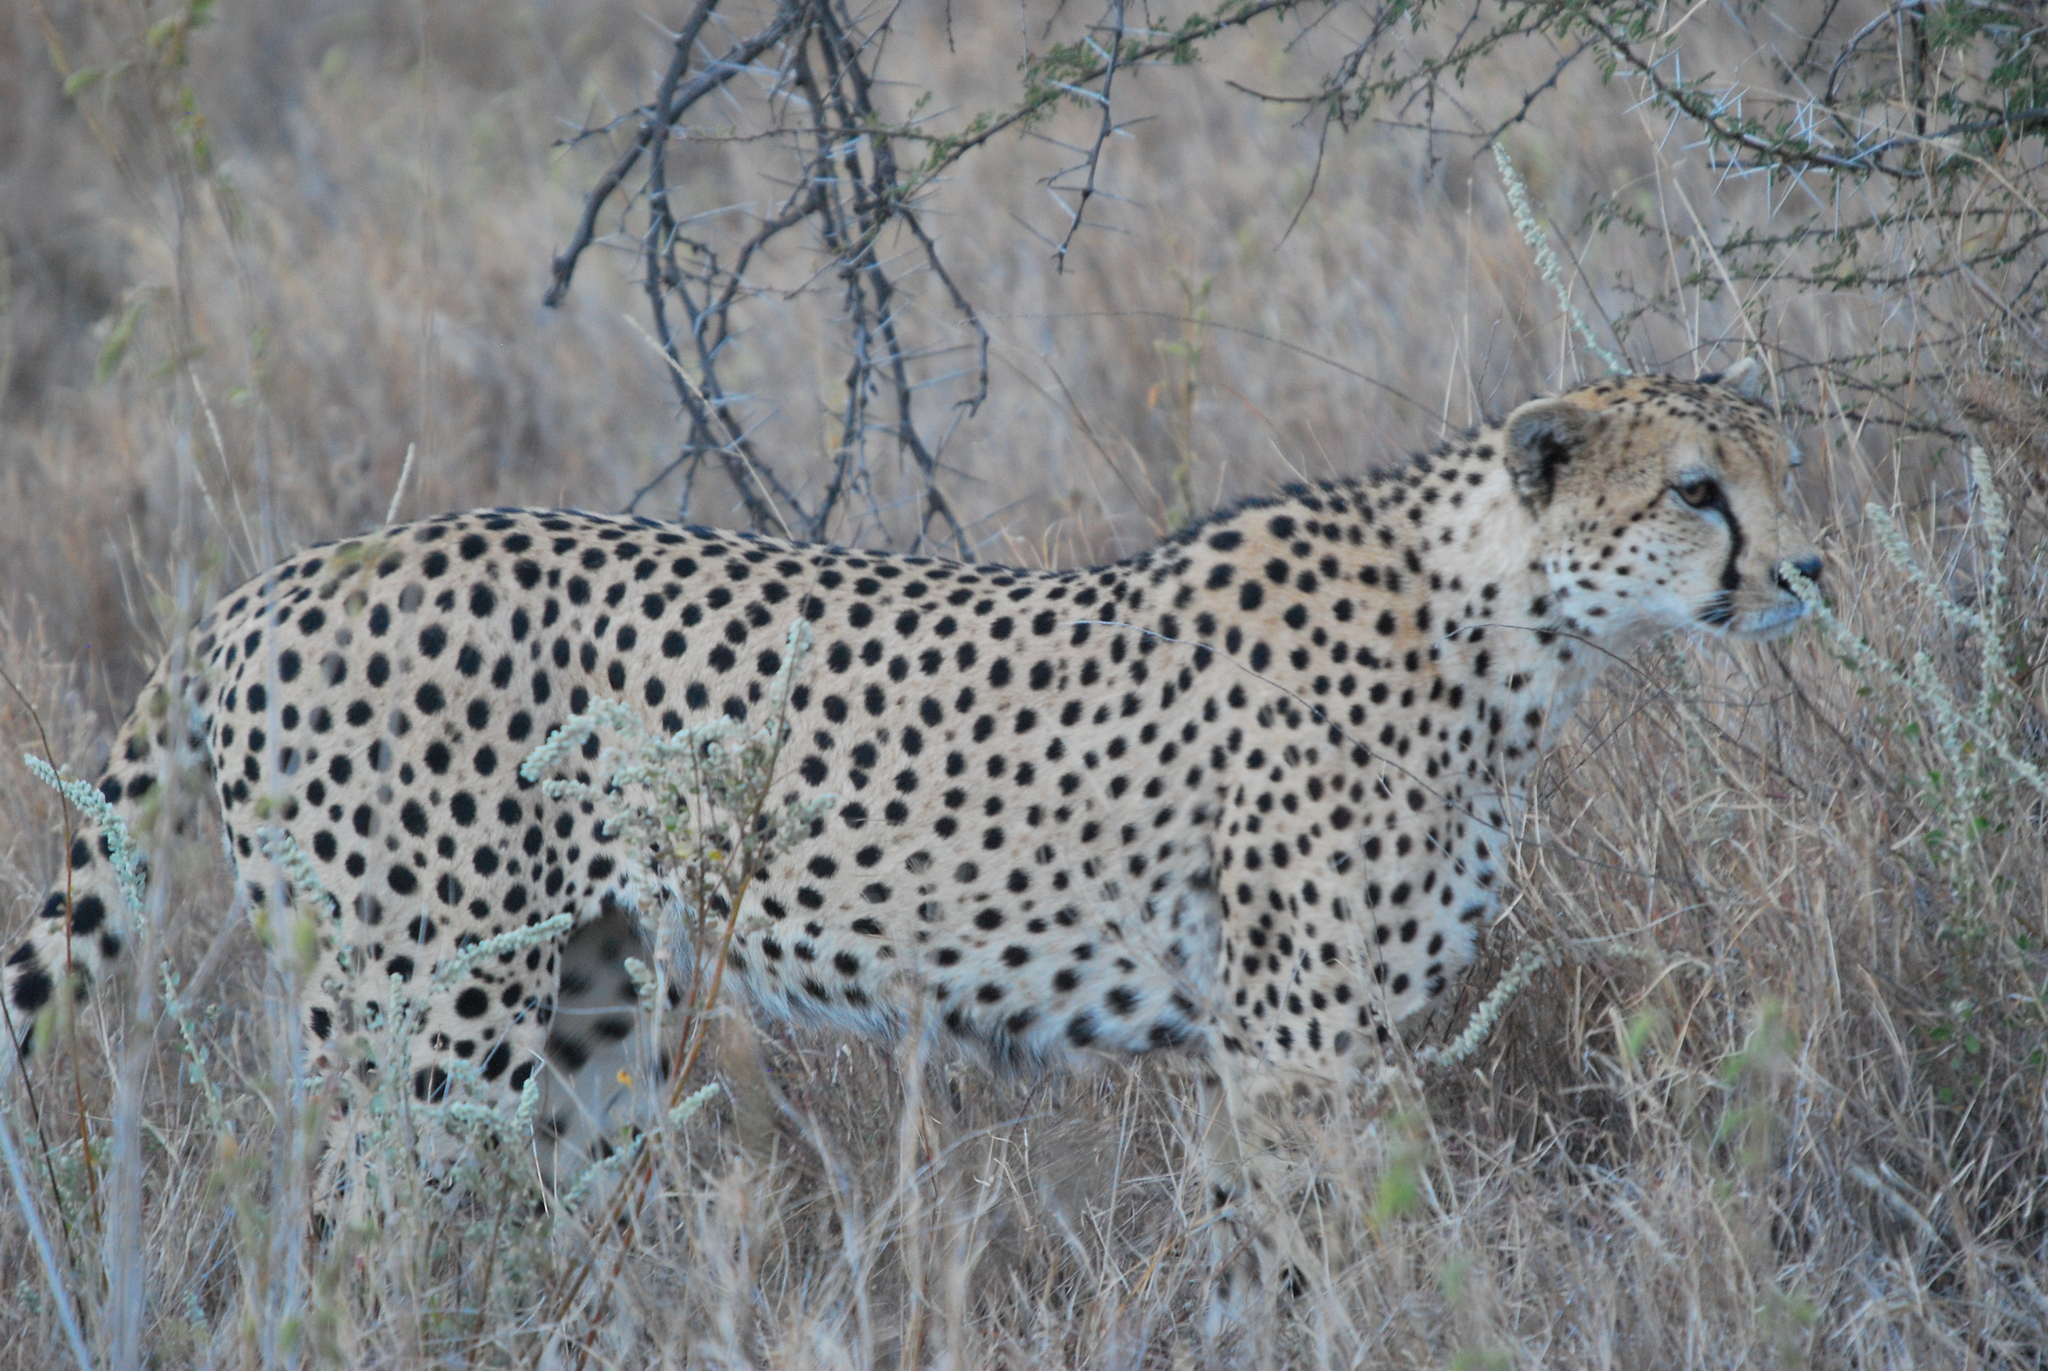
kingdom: Animalia
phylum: Chordata
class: Mammalia
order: Carnivora
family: Felidae
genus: Acinonyx
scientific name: Acinonyx jubatus
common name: Cheetah
